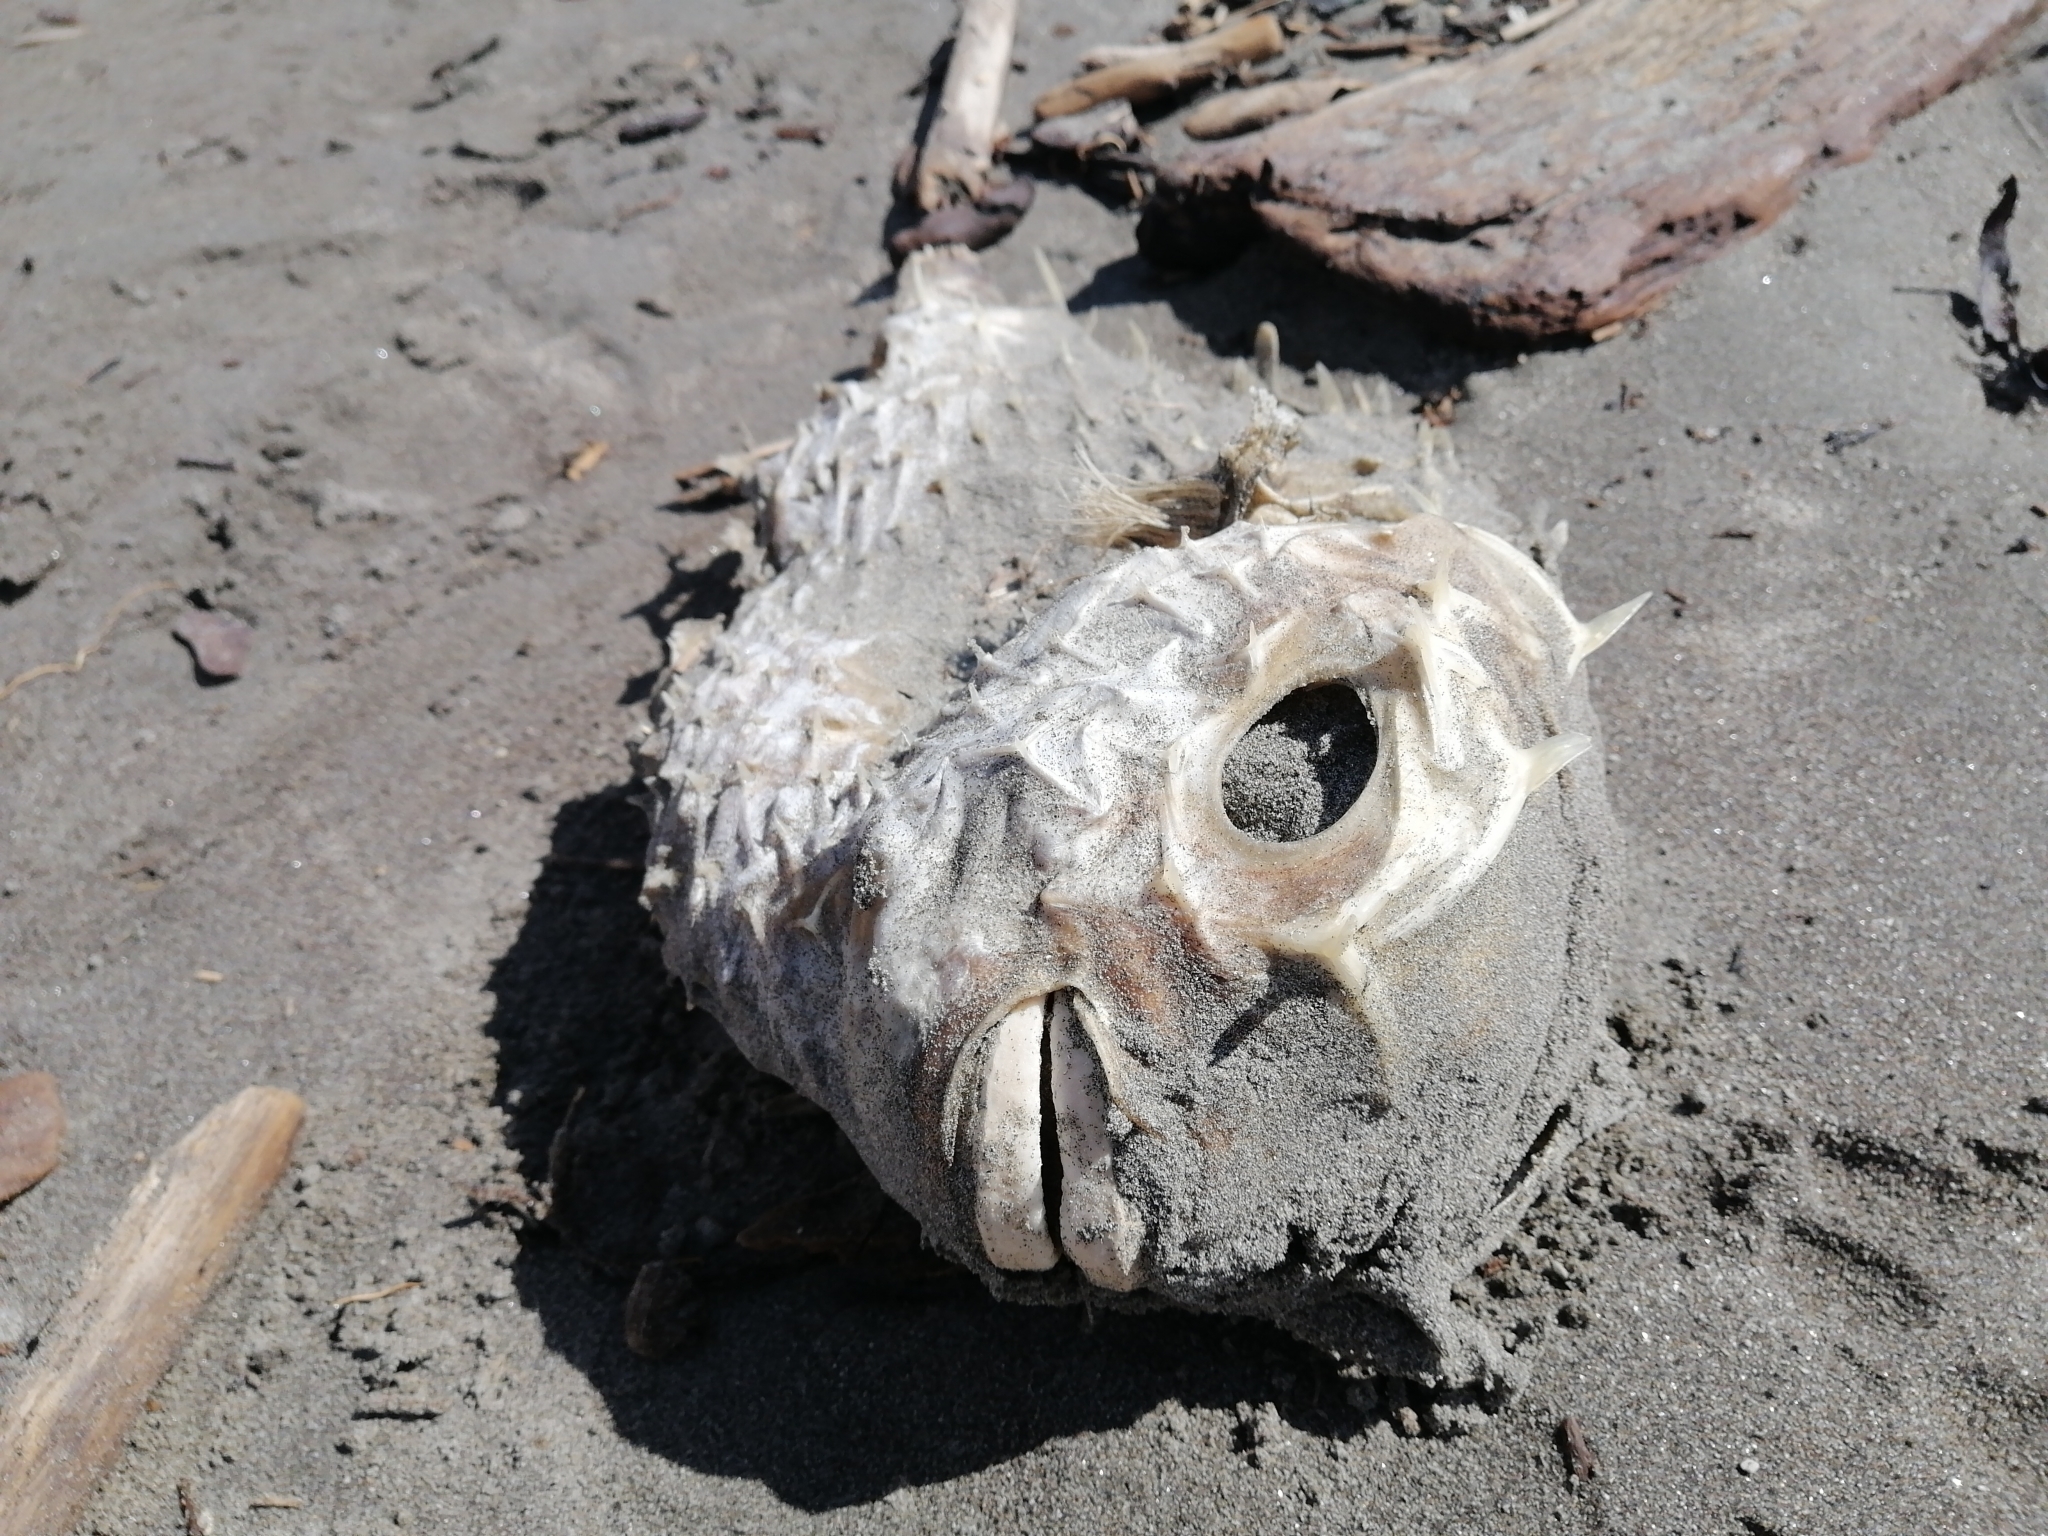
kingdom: Animalia
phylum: Chordata
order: Tetraodontiformes
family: Diodontidae
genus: Allomycterus
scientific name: Allomycterus pilatus
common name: No common name
